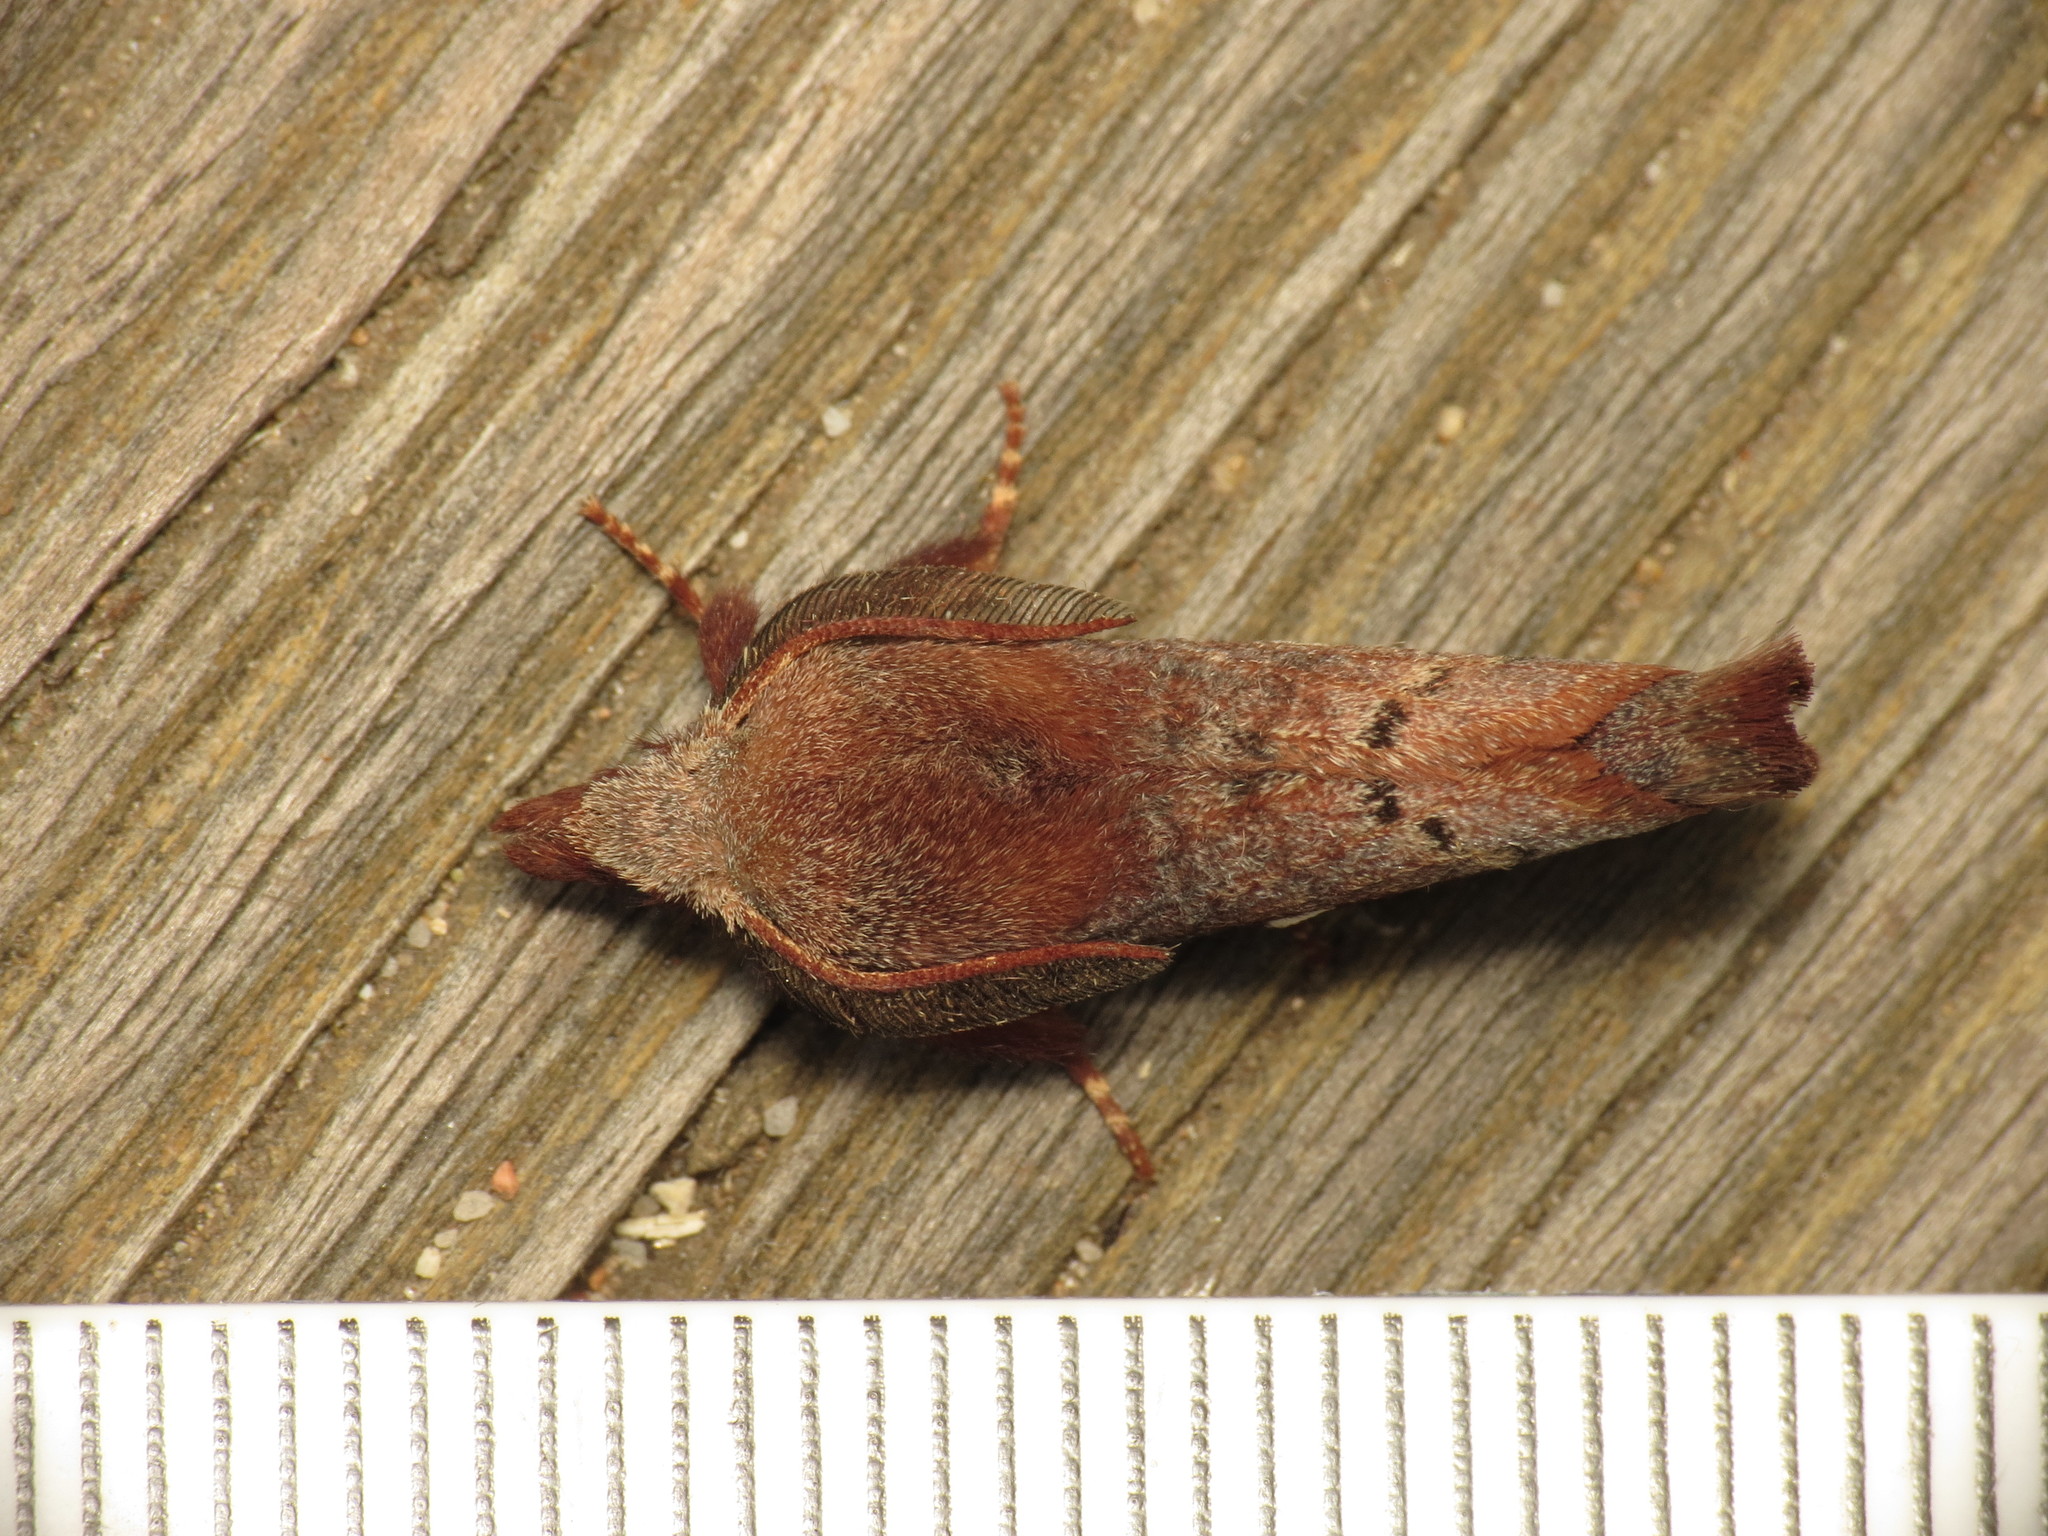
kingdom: Animalia
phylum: Arthropoda
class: Insecta
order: Lepidoptera
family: Lasiocampidae
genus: Opsirhina
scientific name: Opsirhina albigutta
